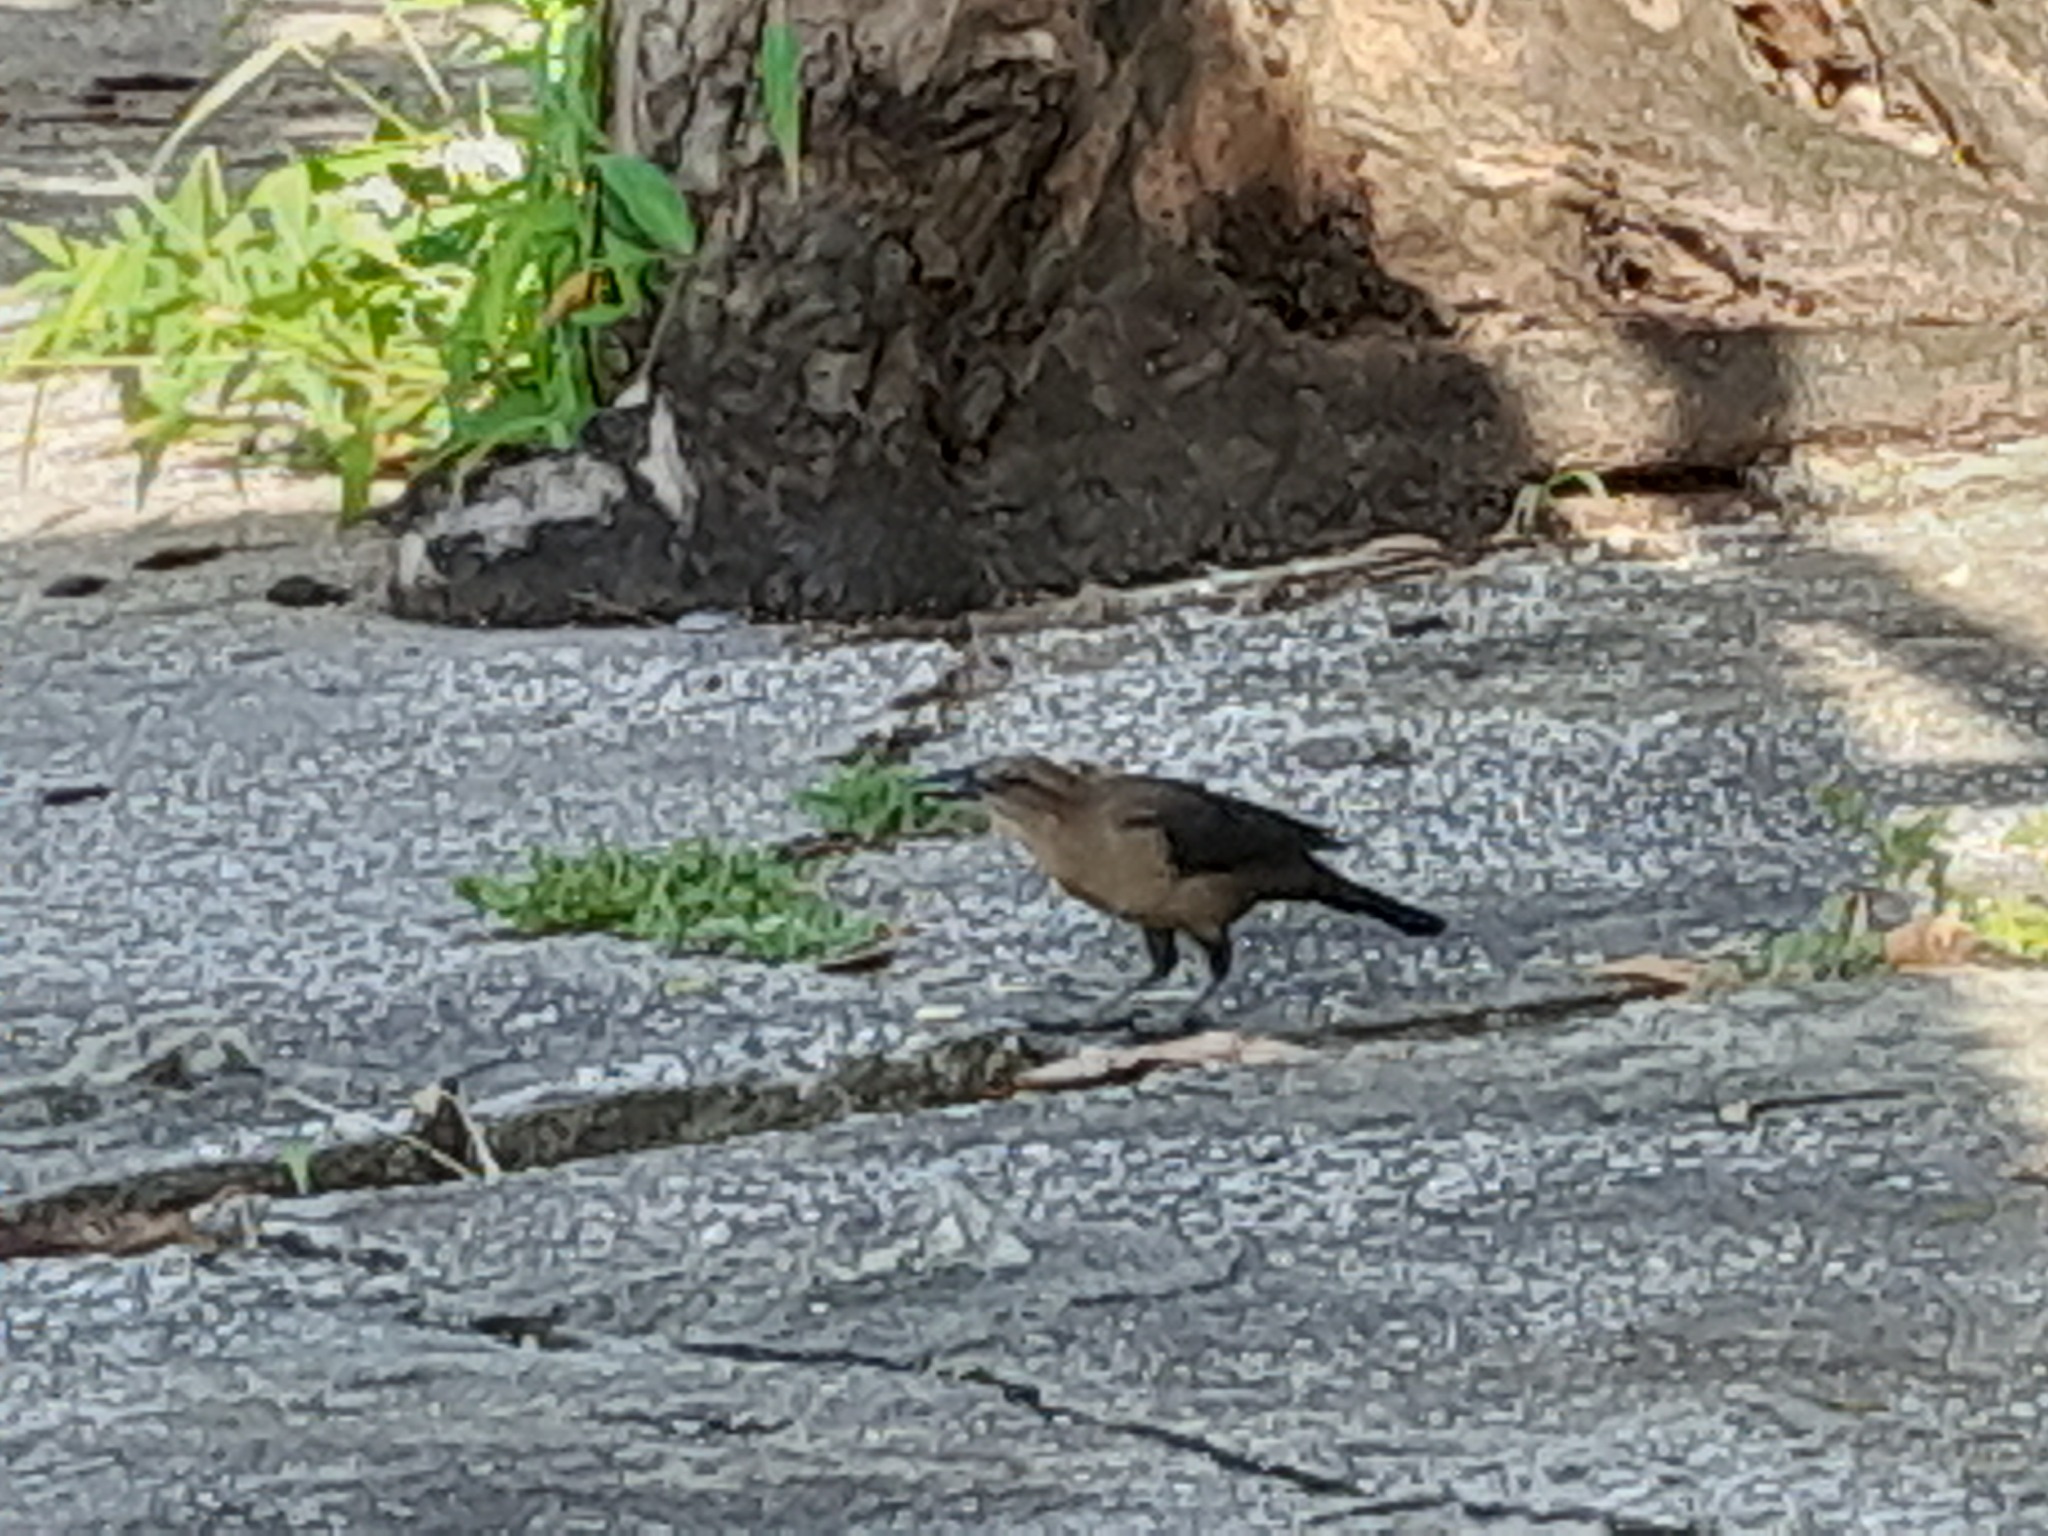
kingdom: Animalia
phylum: Chordata
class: Aves
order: Passeriformes
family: Icteridae
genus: Quiscalus
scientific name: Quiscalus mexicanus
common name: Great-tailed grackle
